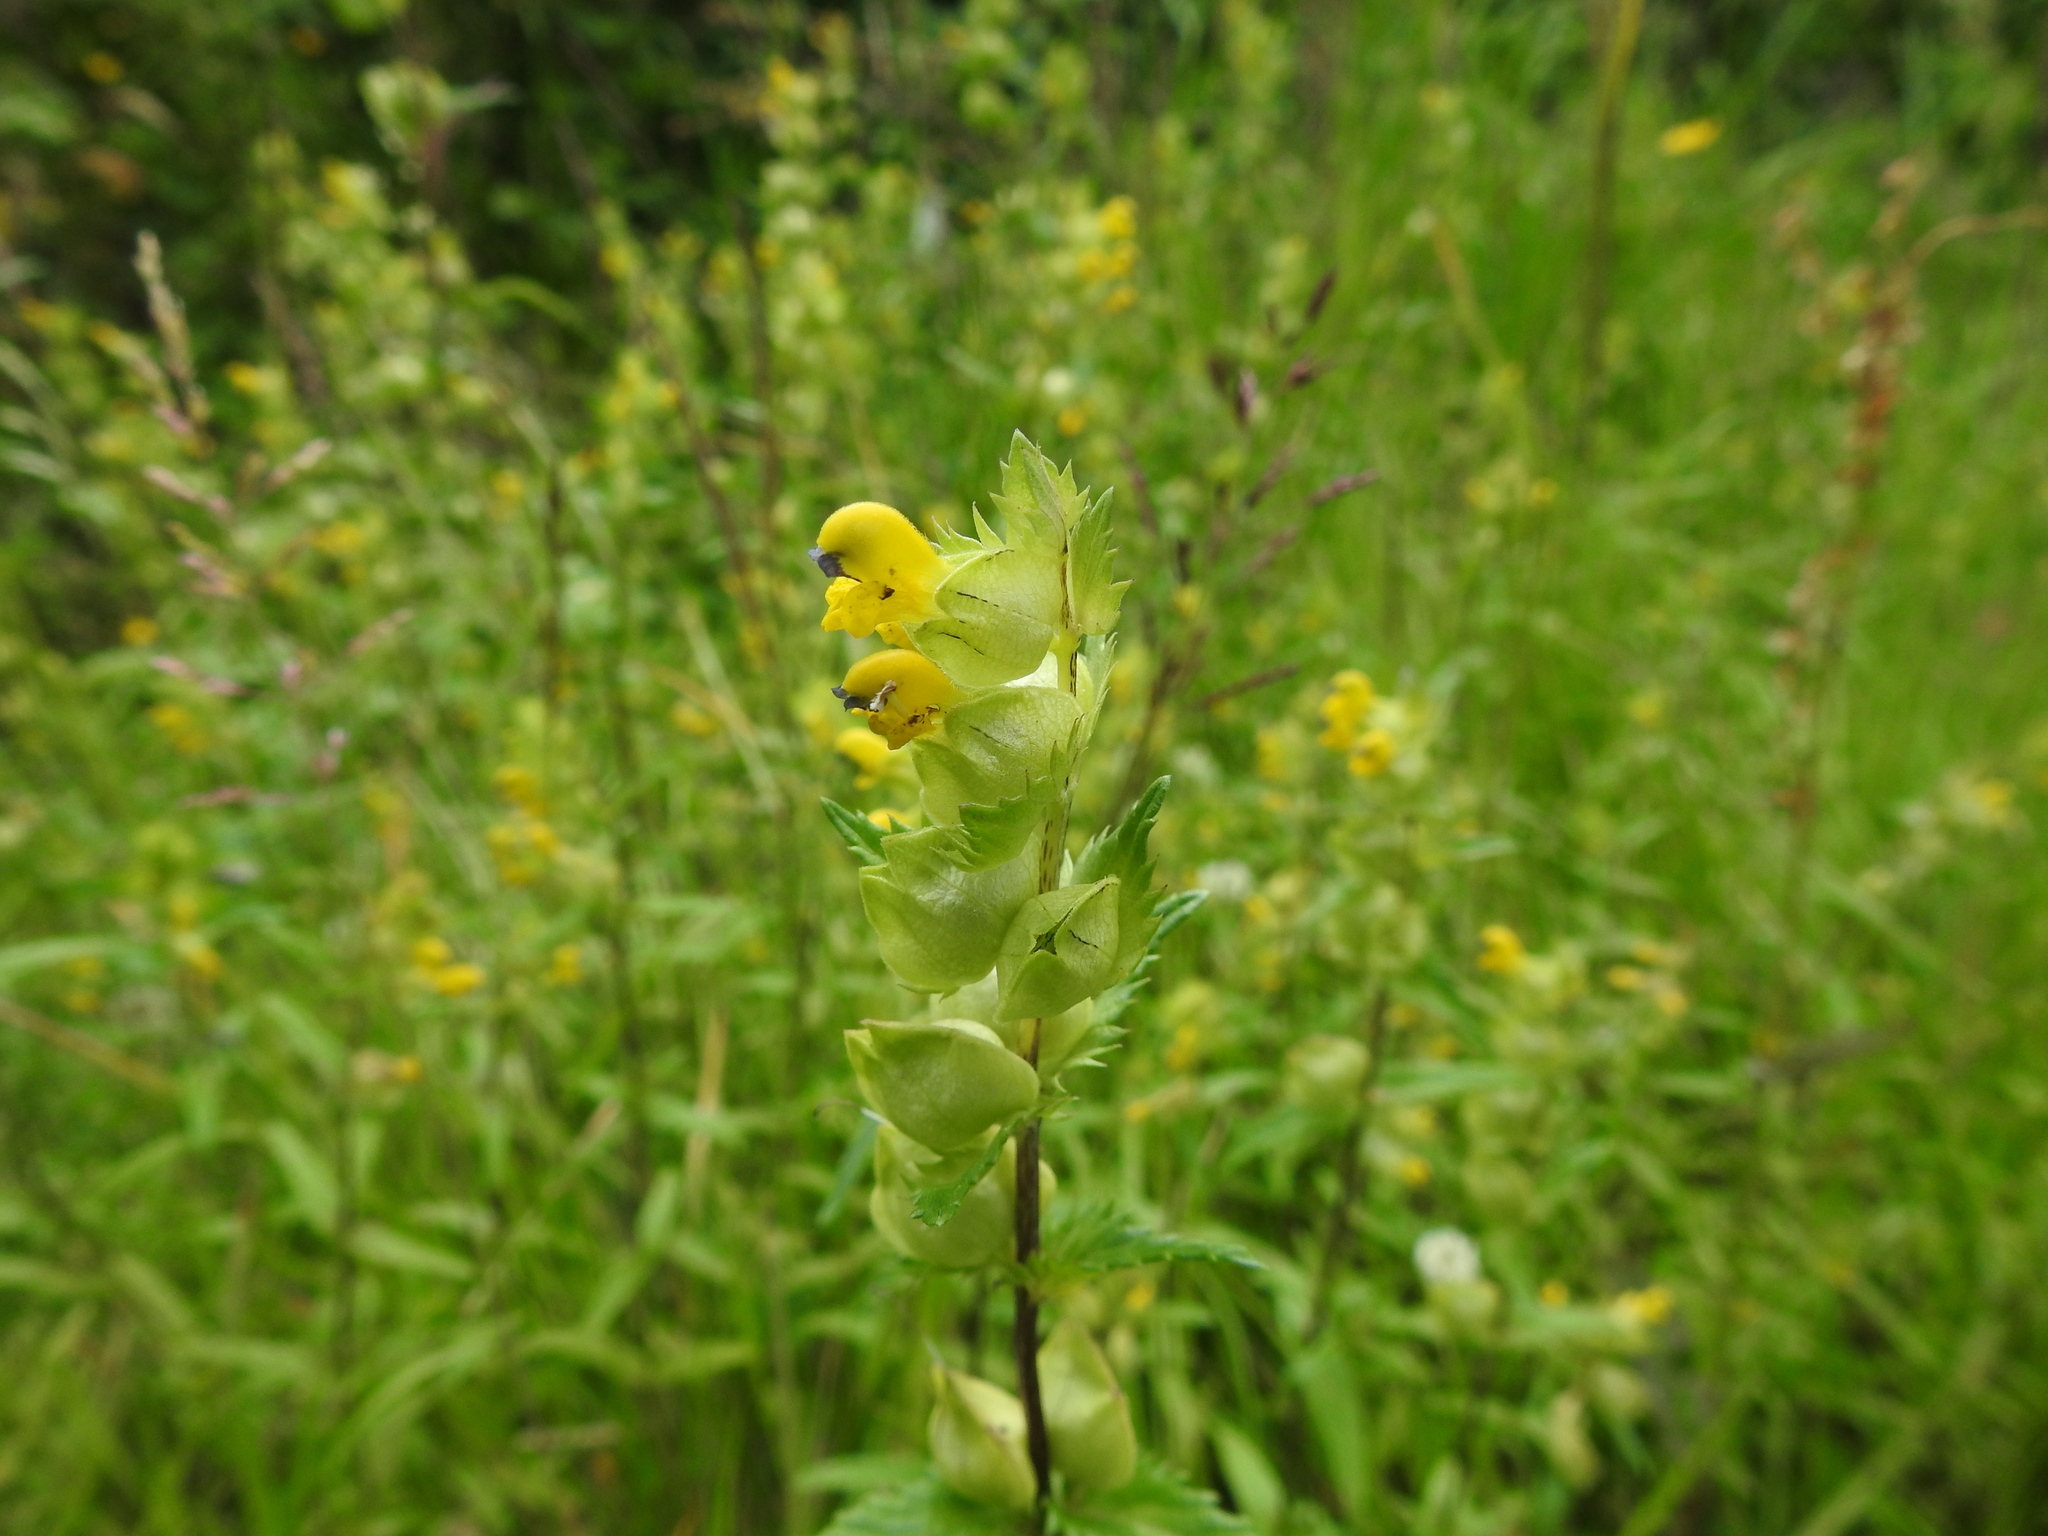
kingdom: Plantae
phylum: Tracheophyta
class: Magnoliopsida
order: Lamiales
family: Orobanchaceae
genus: Rhinanthus
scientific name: Rhinanthus minor
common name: Yellow-rattle
